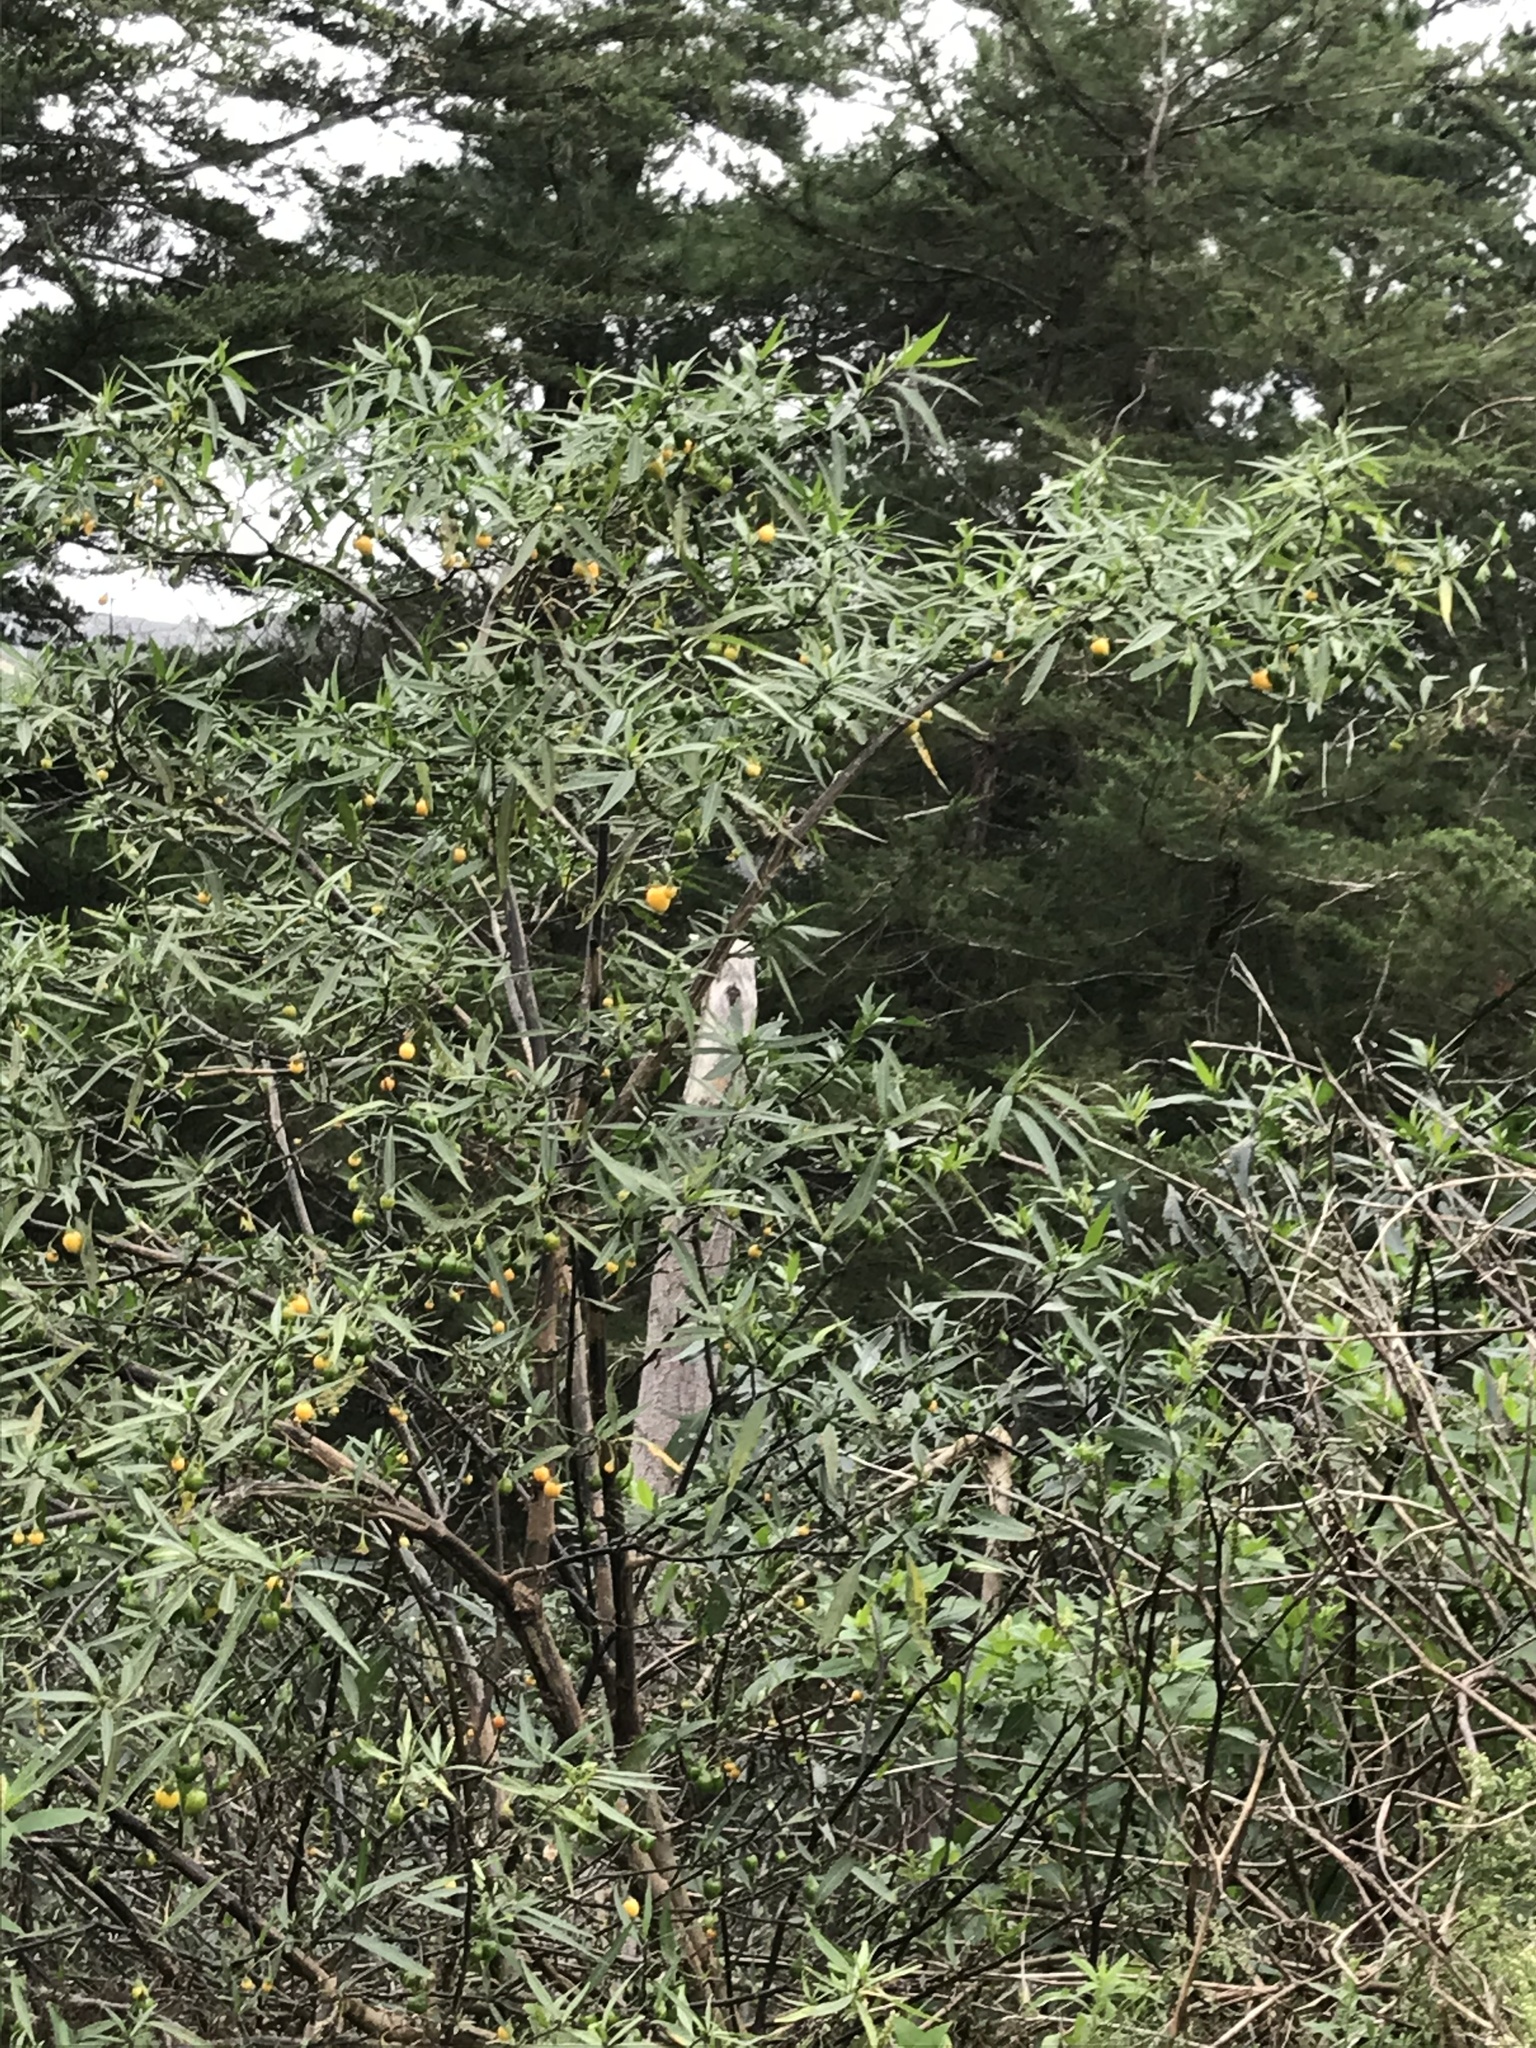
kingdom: Plantae
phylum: Tracheophyta
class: Magnoliopsida
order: Solanales
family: Solanaceae
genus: Solanum
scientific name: Solanum laciniatum
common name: Kangaroo-apple
